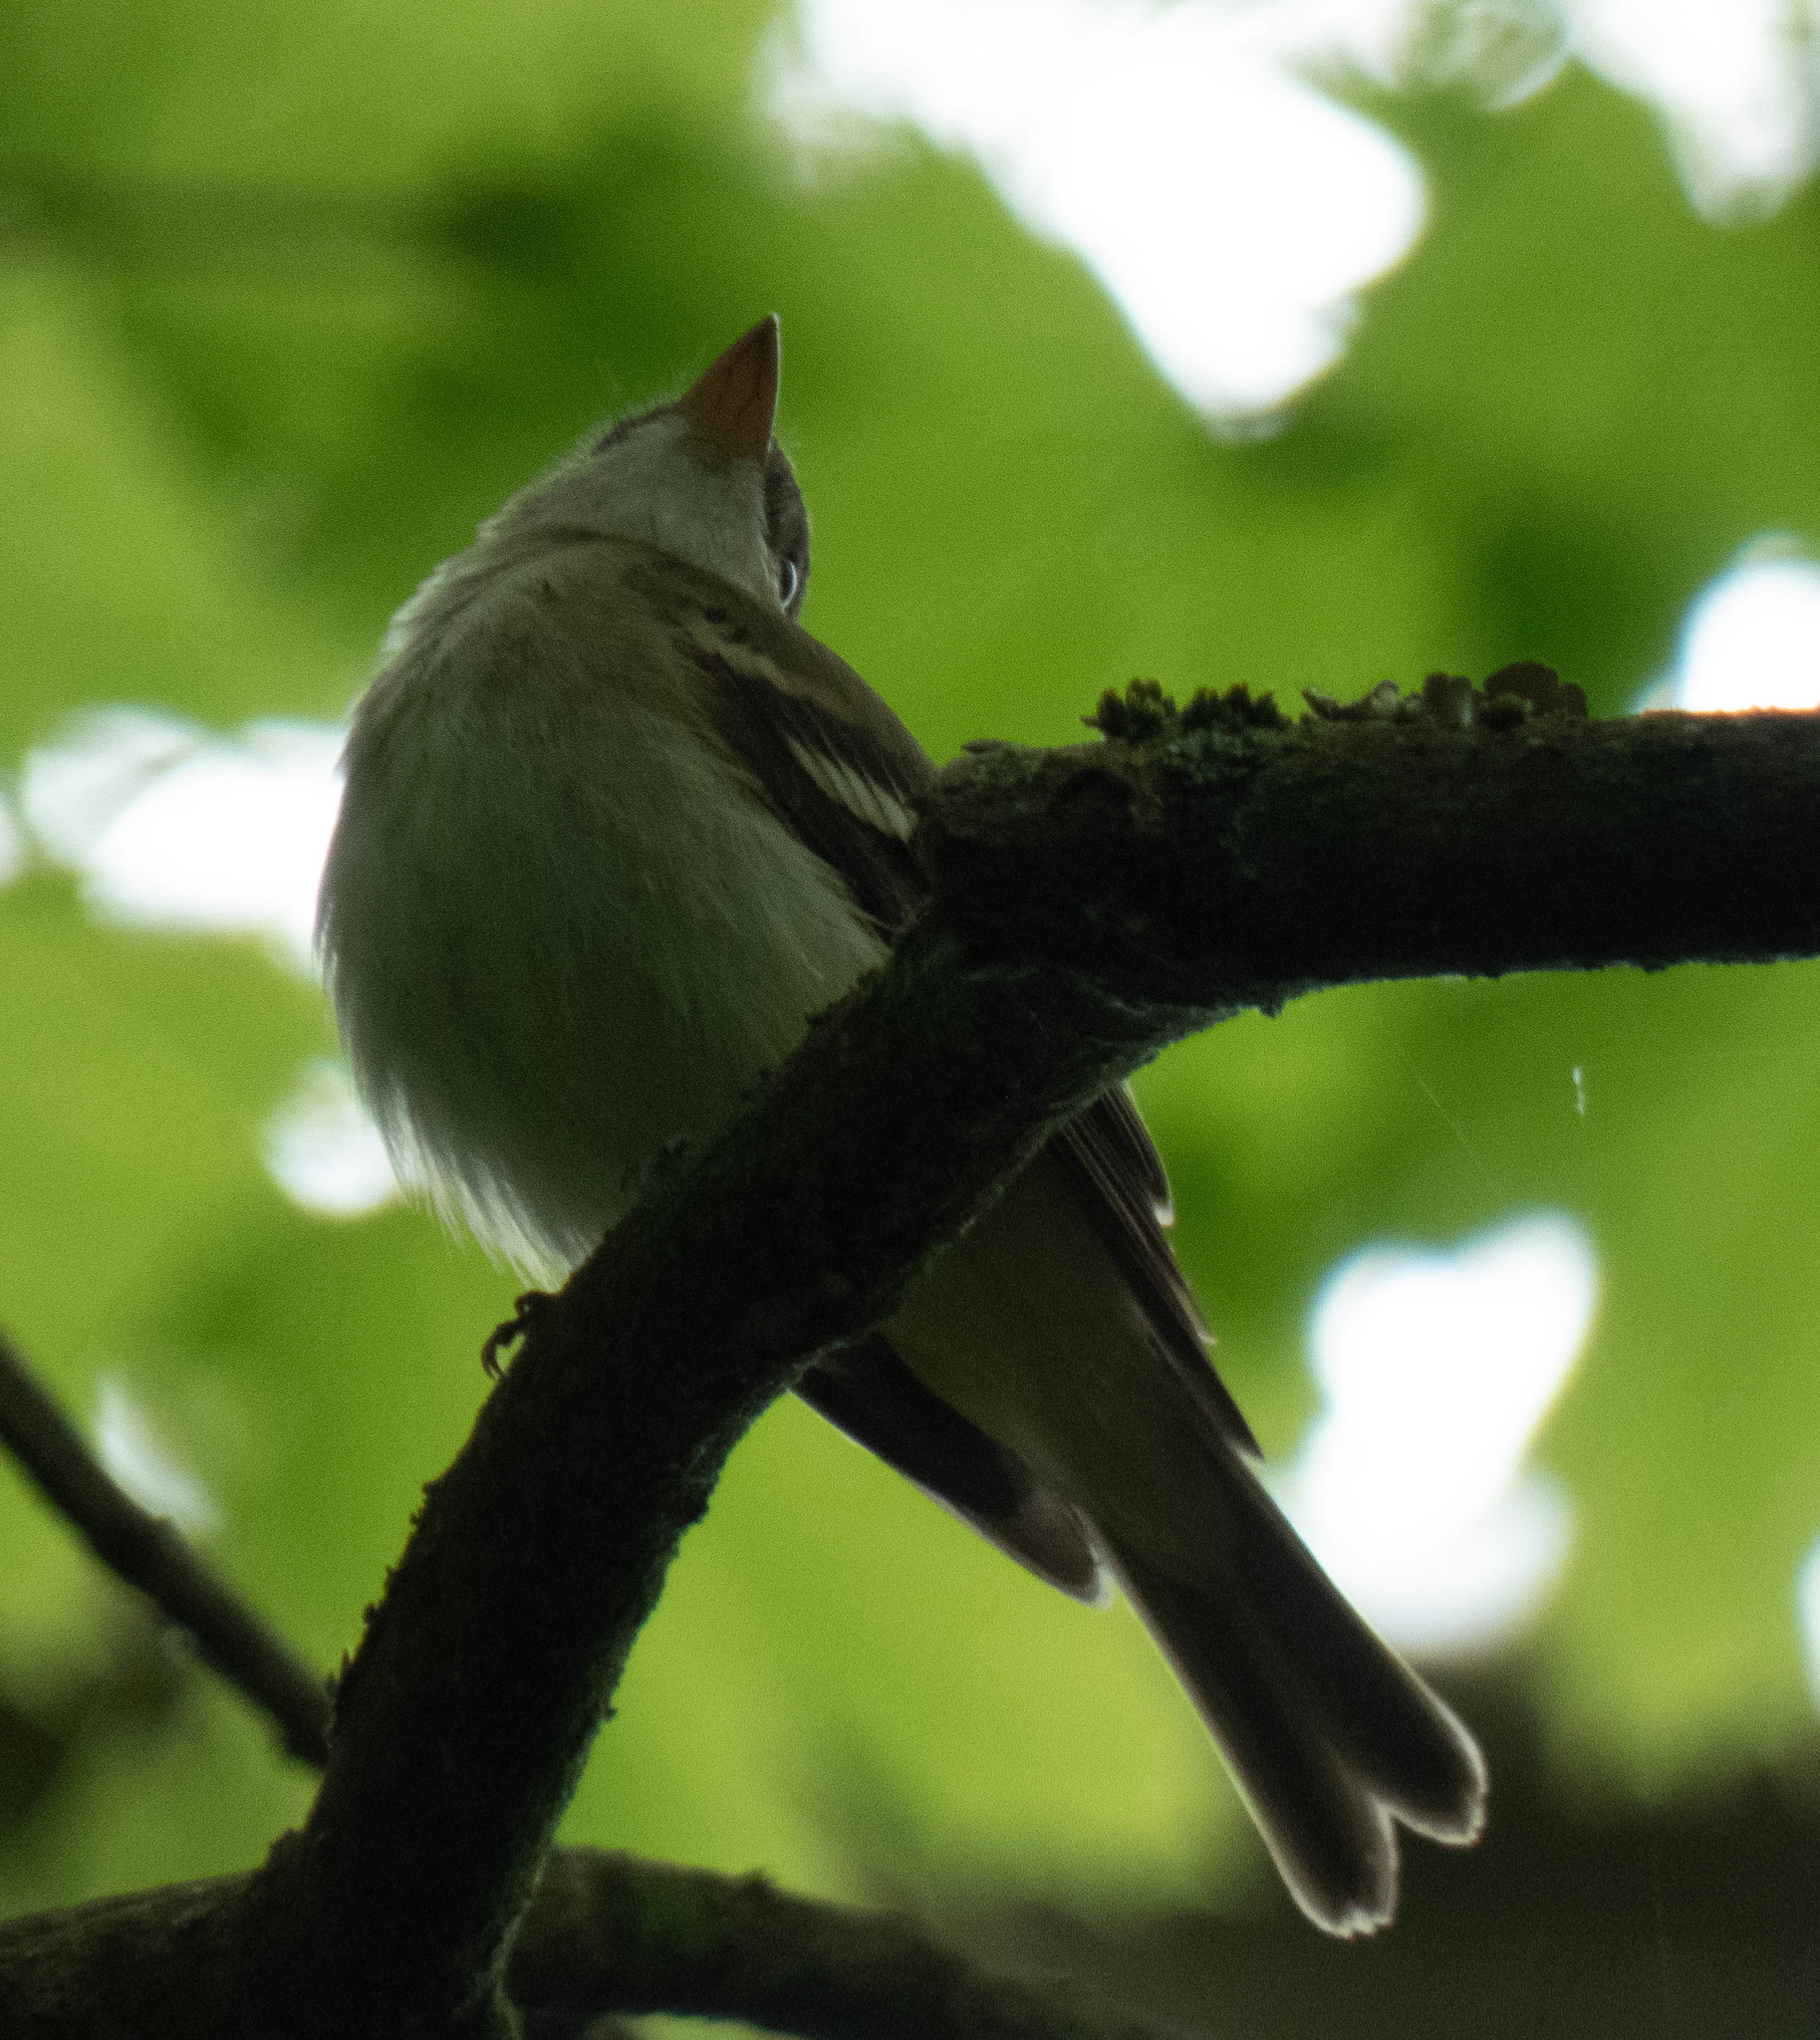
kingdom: Animalia
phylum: Chordata
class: Aves
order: Passeriformes
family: Tyrannidae
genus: Empidonax
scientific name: Empidonax virescens
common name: Acadian flycatcher
